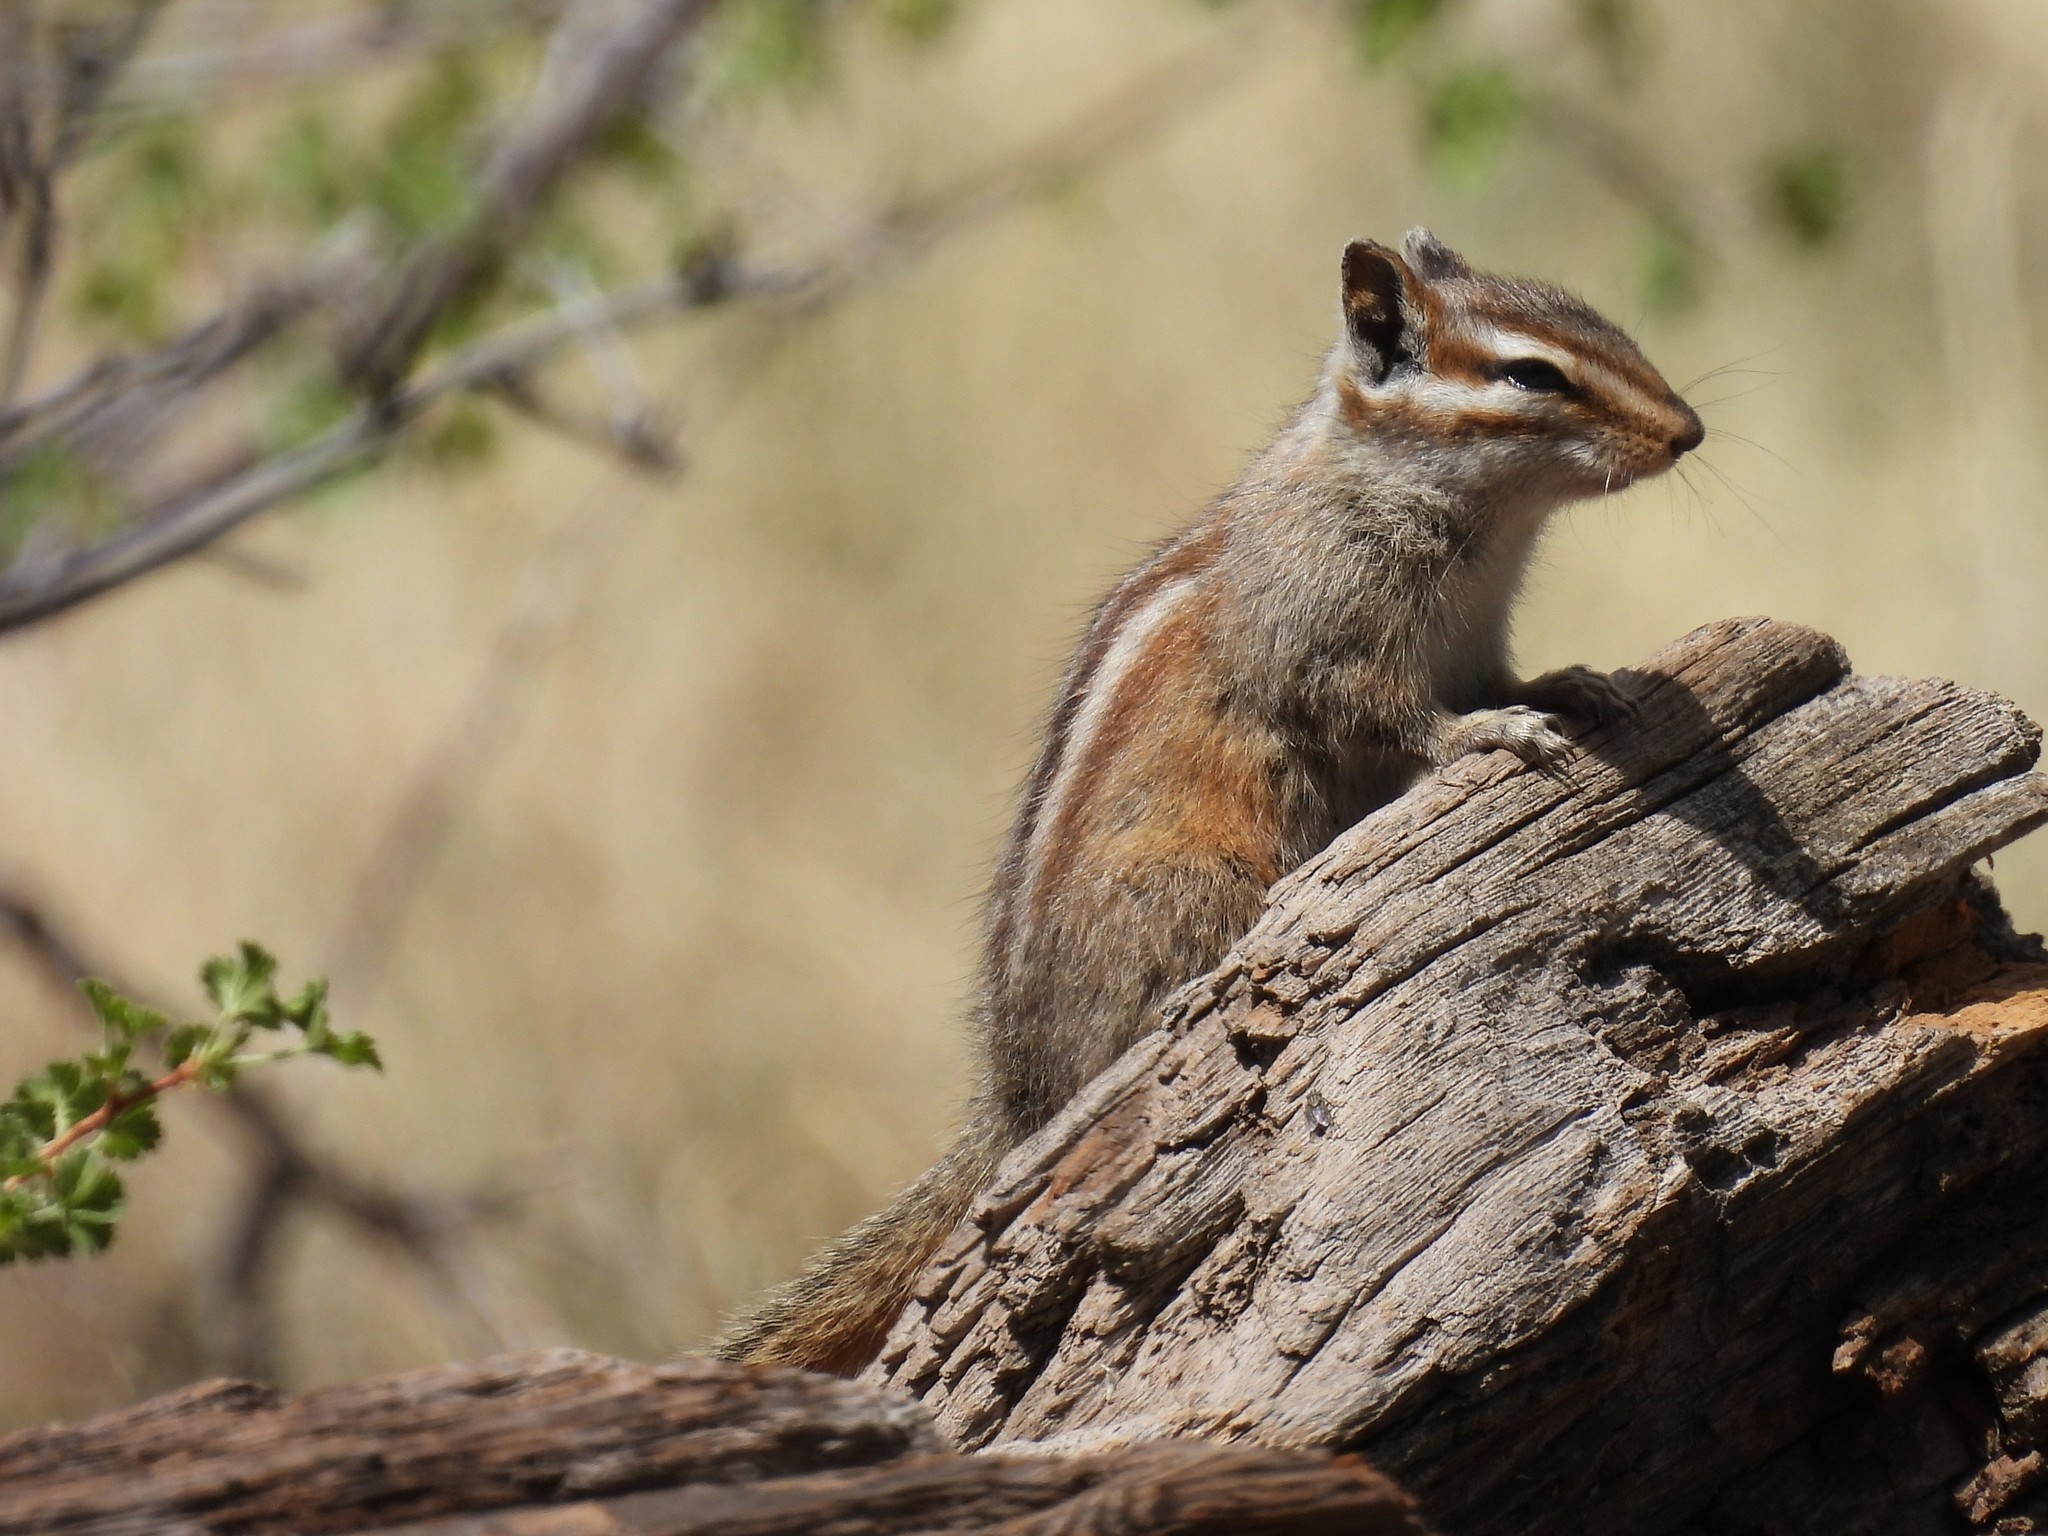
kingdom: Animalia
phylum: Chordata
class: Mammalia
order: Rodentia
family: Sciuridae
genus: Tamias
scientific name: Tamias cinereicollis
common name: Gray-collared chipmunk
